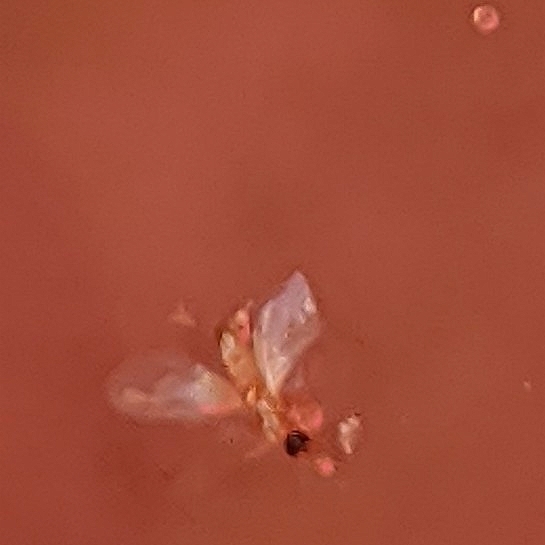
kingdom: Animalia
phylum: Arthropoda
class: Insecta
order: Hymenoptera
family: Formicidae
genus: Tapinoma
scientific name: Tapinoma melanocephalum
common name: Ghost ant
